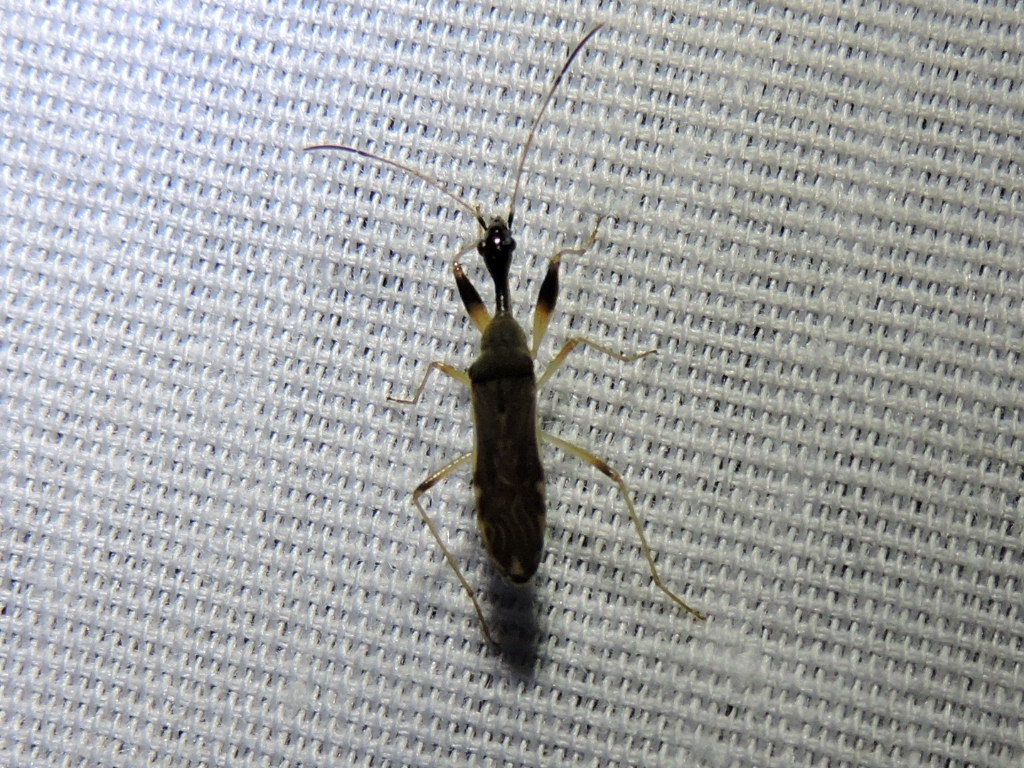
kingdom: Animalia
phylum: Arthropoda
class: Insecta
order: Hemiptera
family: Rhyparochromidae
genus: Myodocha
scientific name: Myodocha serripes
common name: Long-necked seed bug
